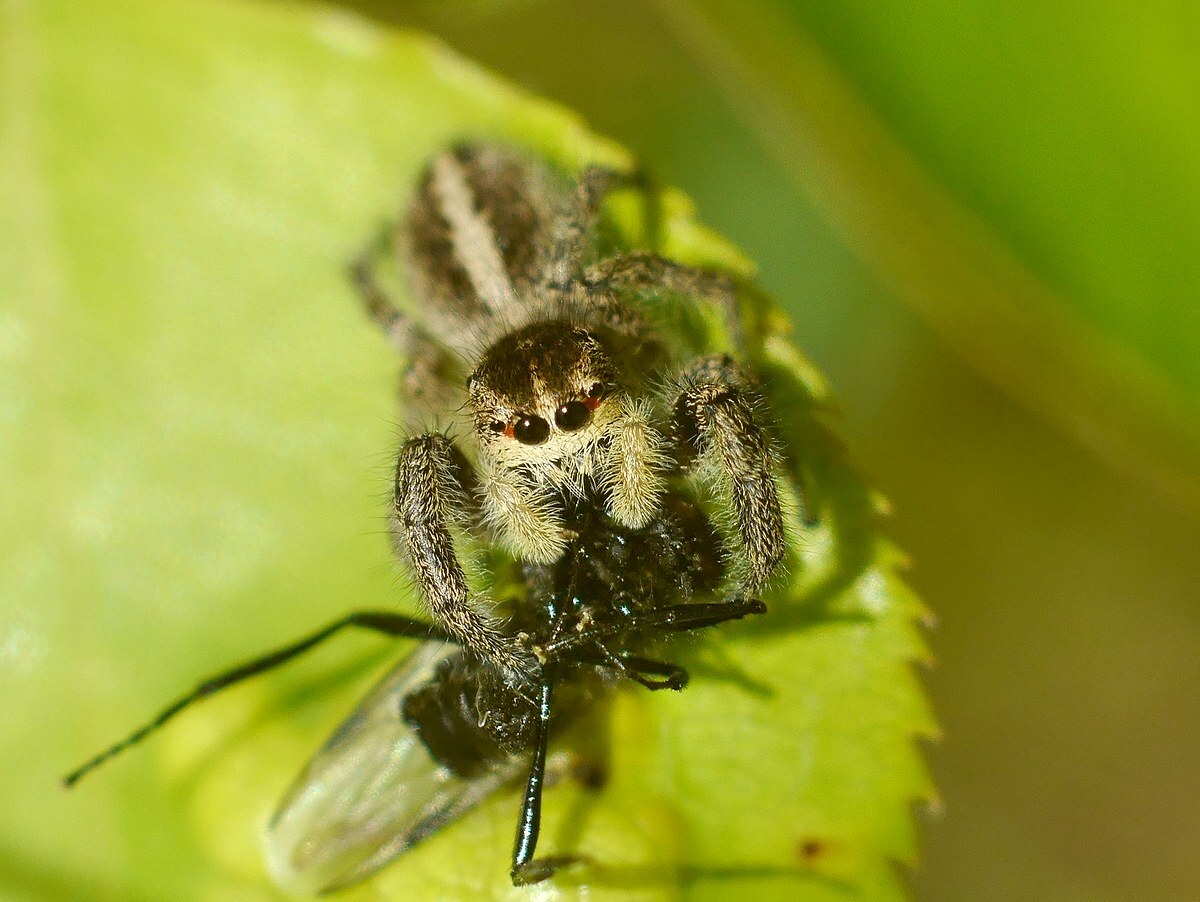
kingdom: Animalia
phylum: Arthropoda
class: Arachnida
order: Araneae
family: Salticidae
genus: Pellenes
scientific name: Pellenes seriatus
